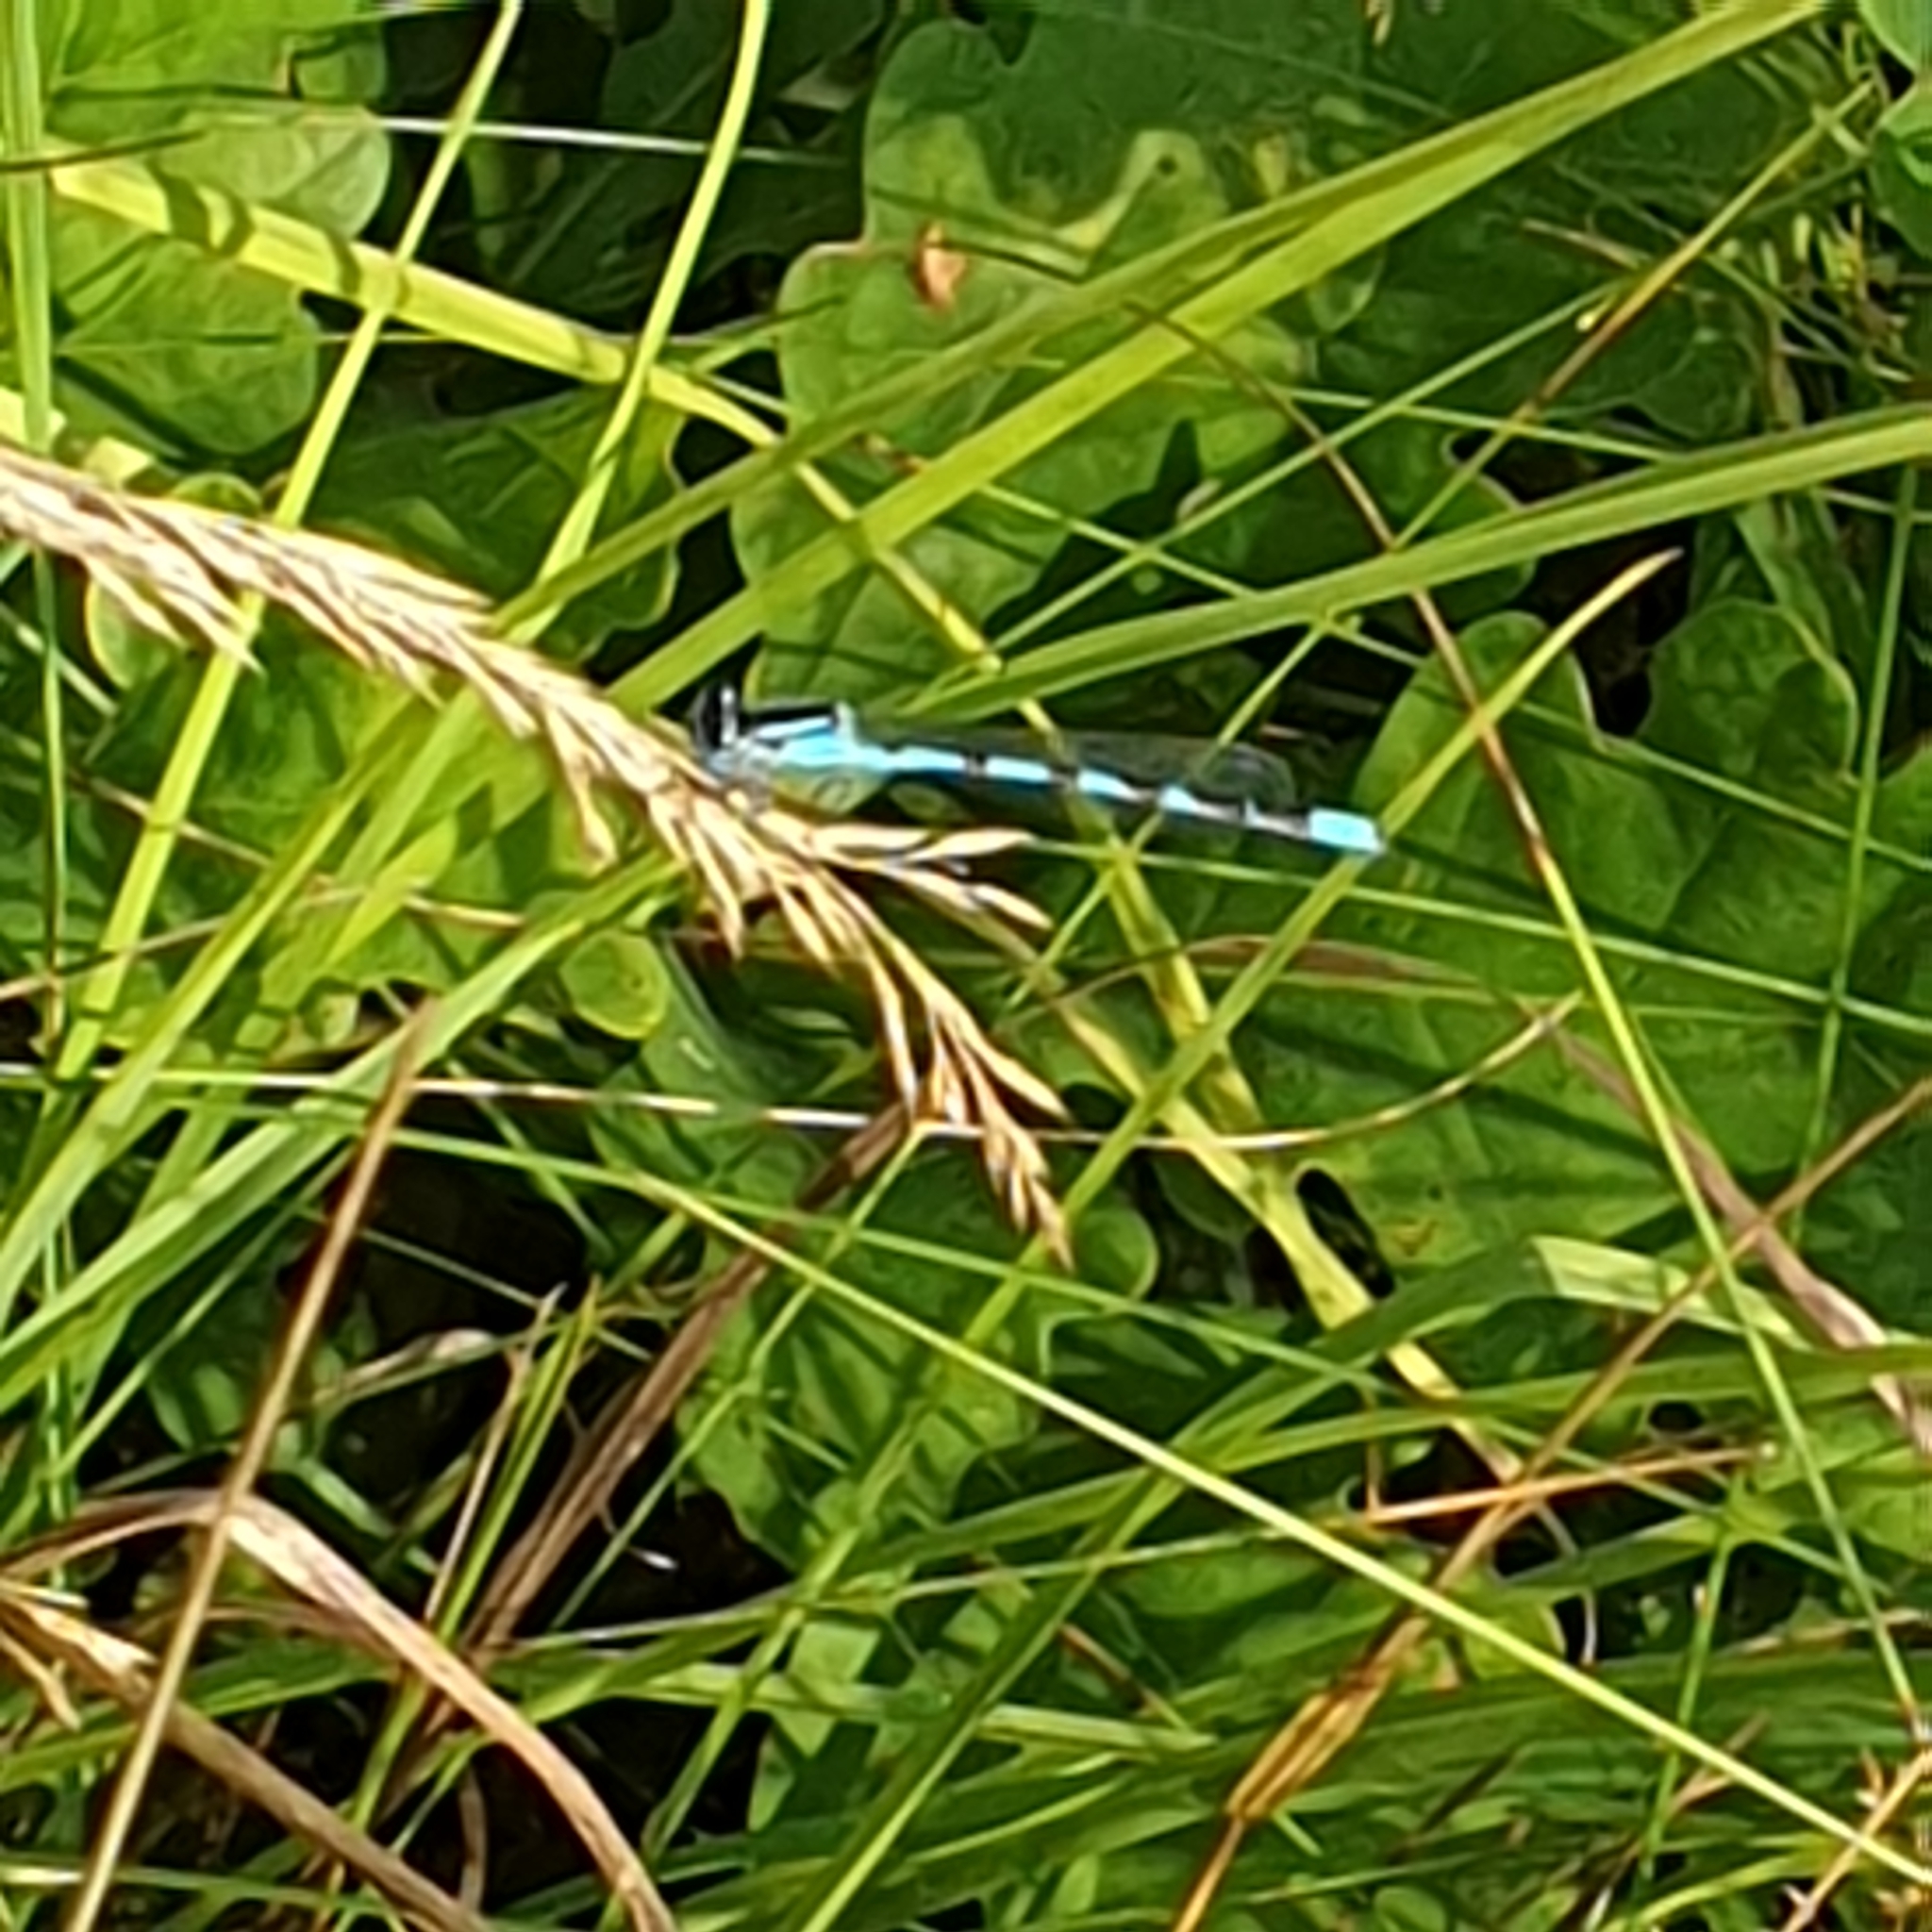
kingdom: Animalia
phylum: Arthropoda
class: Insecta
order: Odonata
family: Coenagrionidae
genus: Enallagma
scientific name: Enallagma cyathigerum
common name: Common blue damselfly
